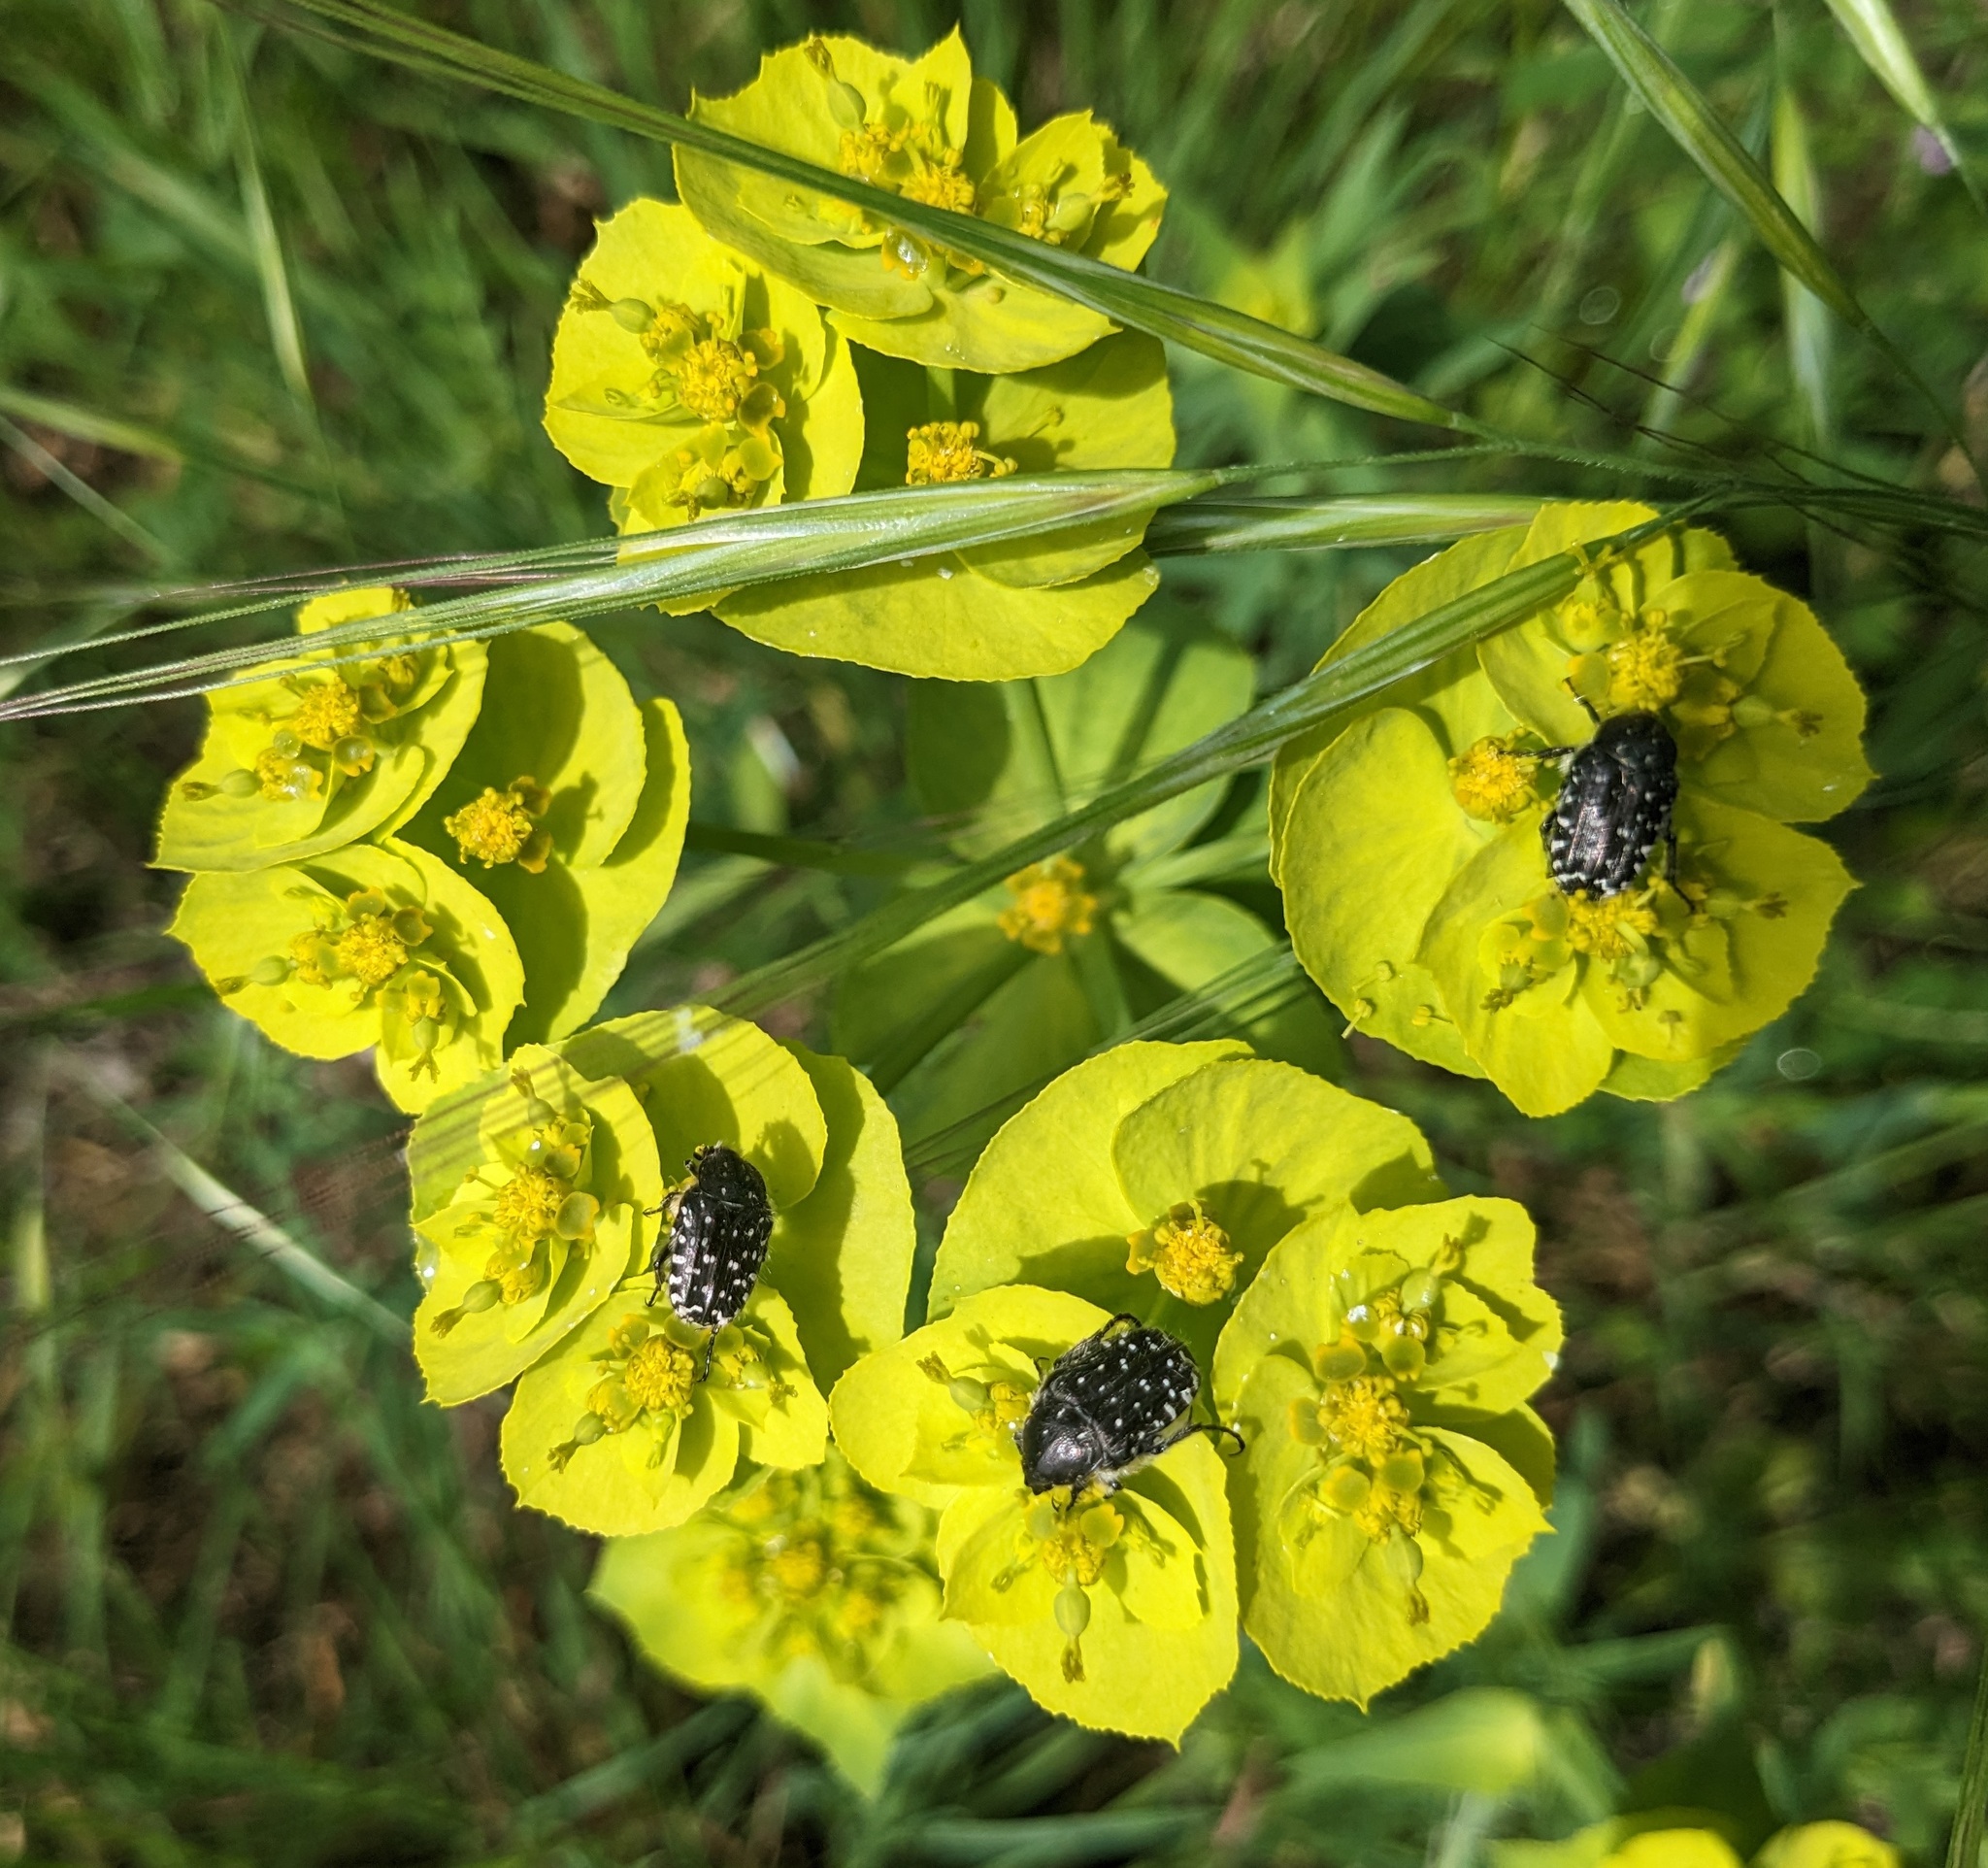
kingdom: Animalia
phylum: Arthropoda
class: Insecta
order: Coleoptera
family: Scarabaeidae
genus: Oxythyrea
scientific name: Oxythyrea funesta
